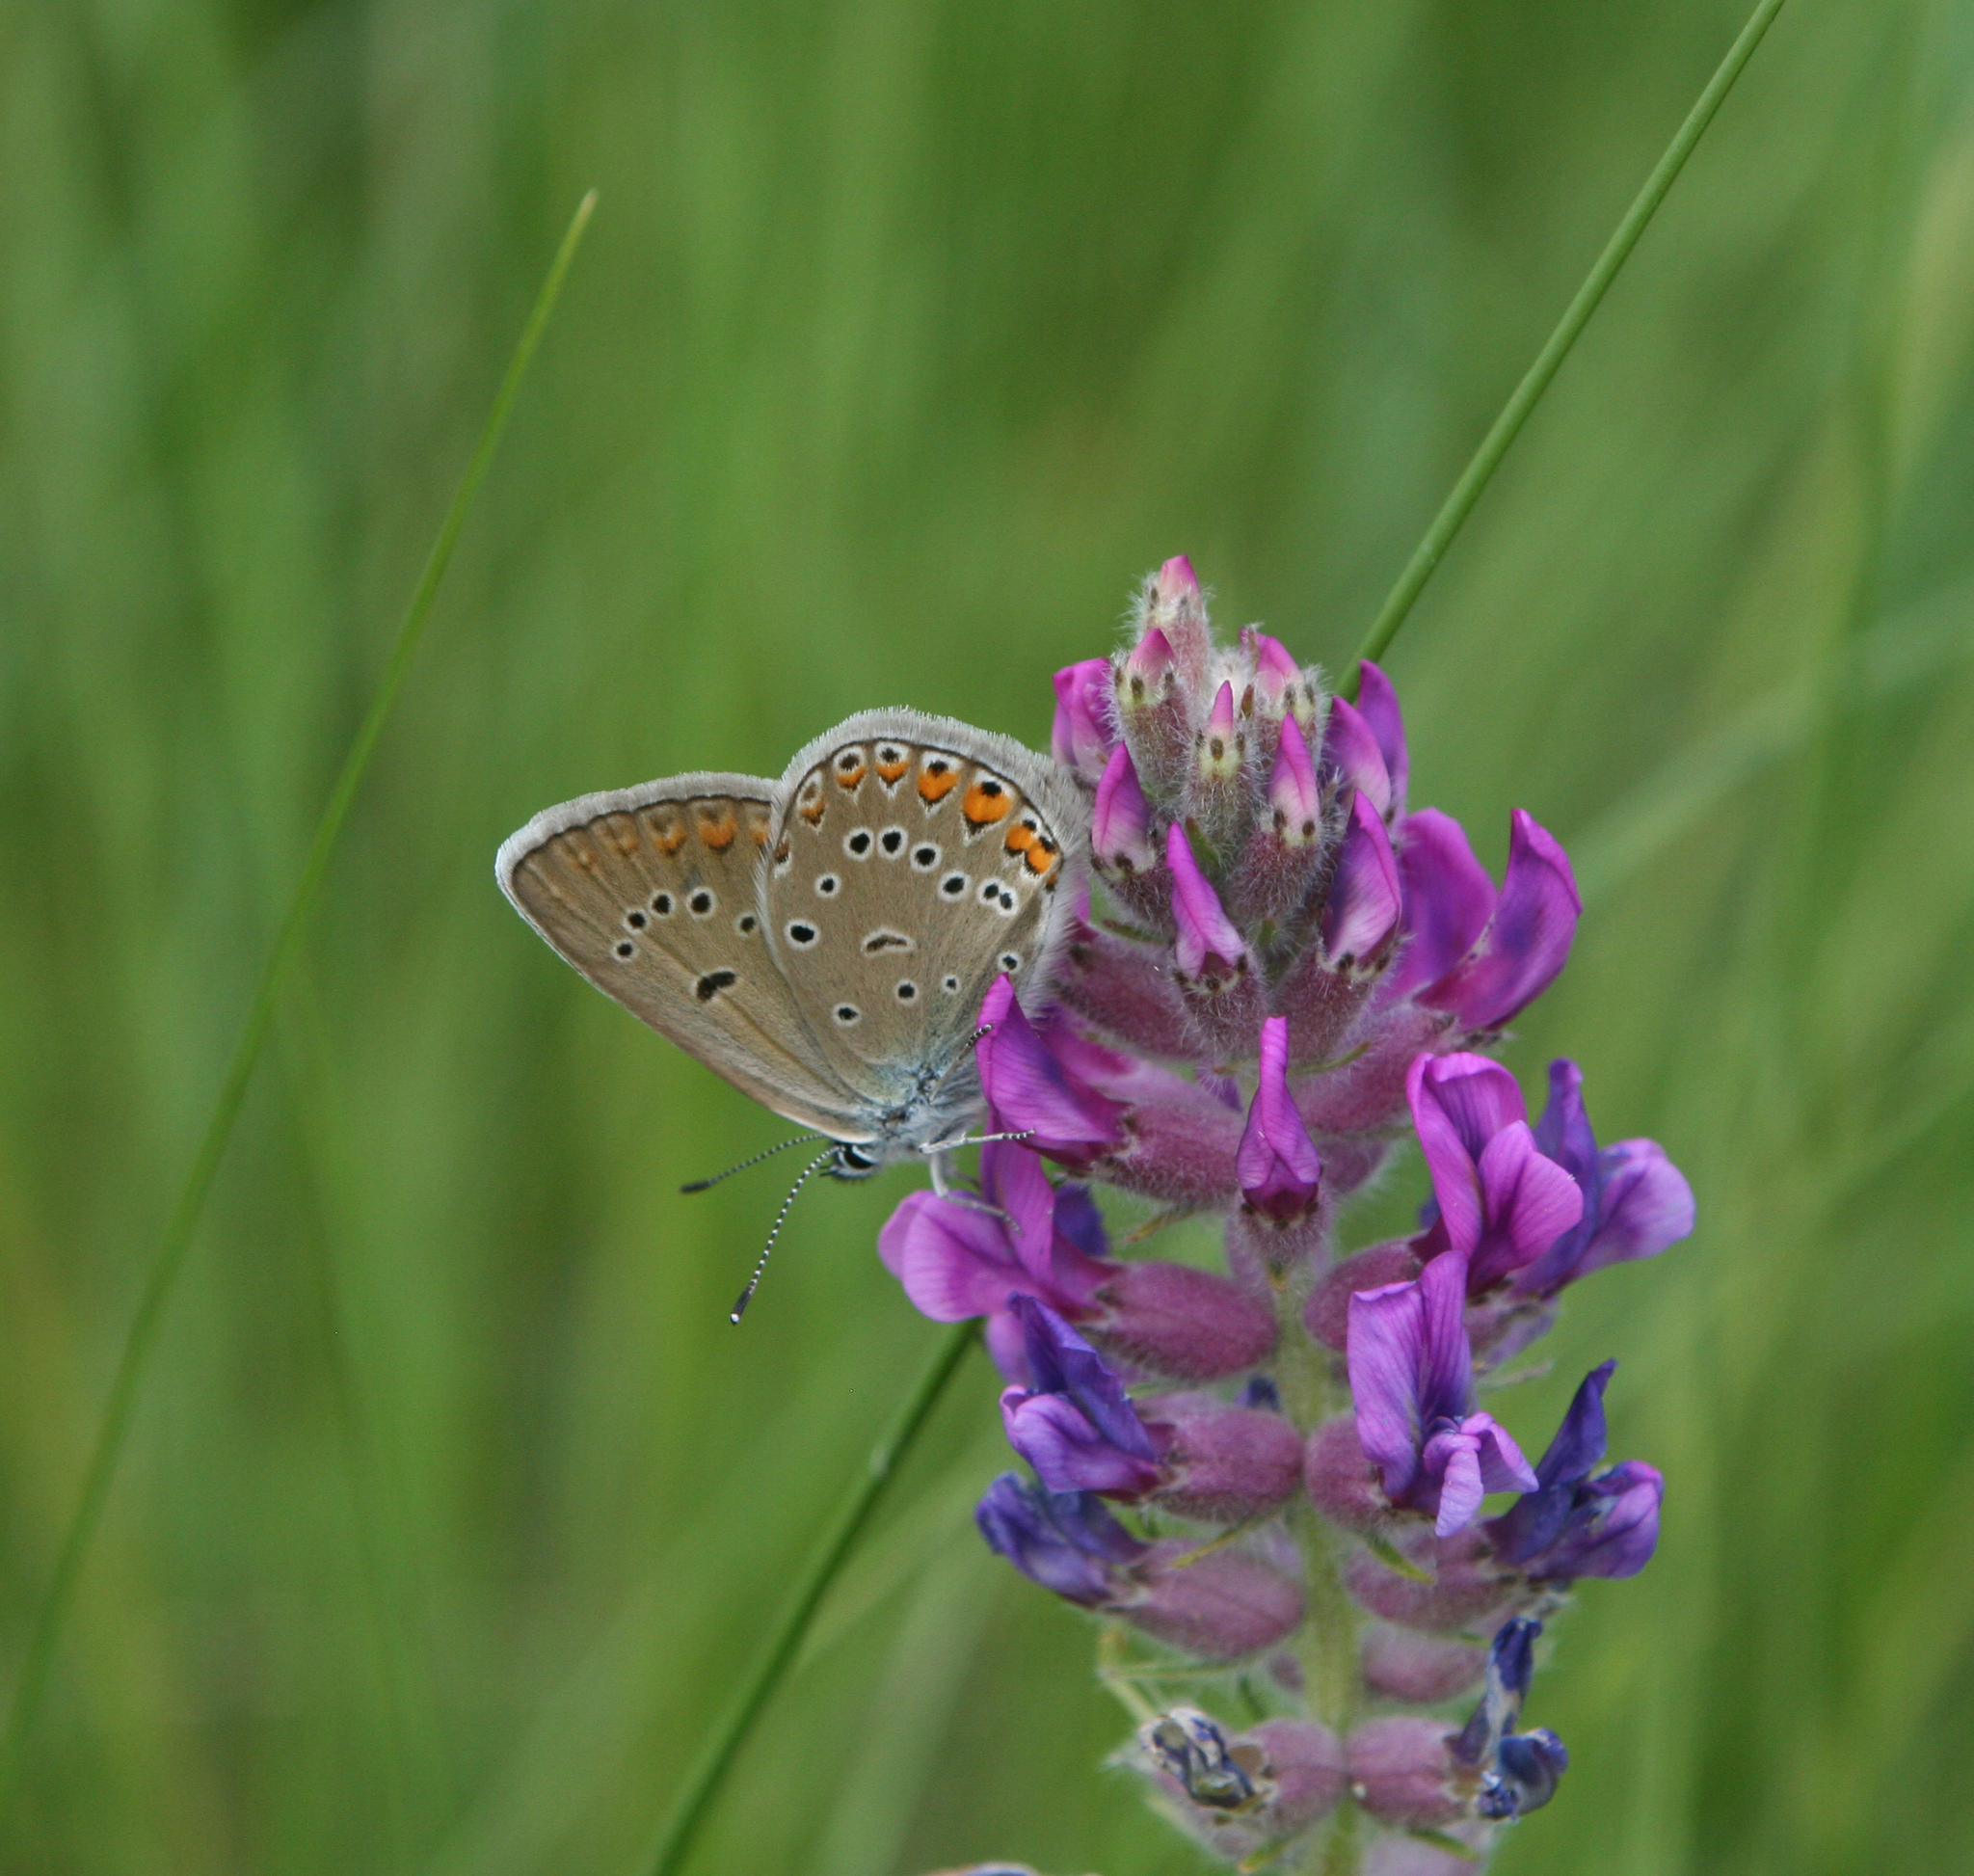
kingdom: Animalia
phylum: Arthropoda
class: Insecta
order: Lepidoptera
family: Lycaenidae
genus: Plebejus
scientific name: Plebejus amanda
